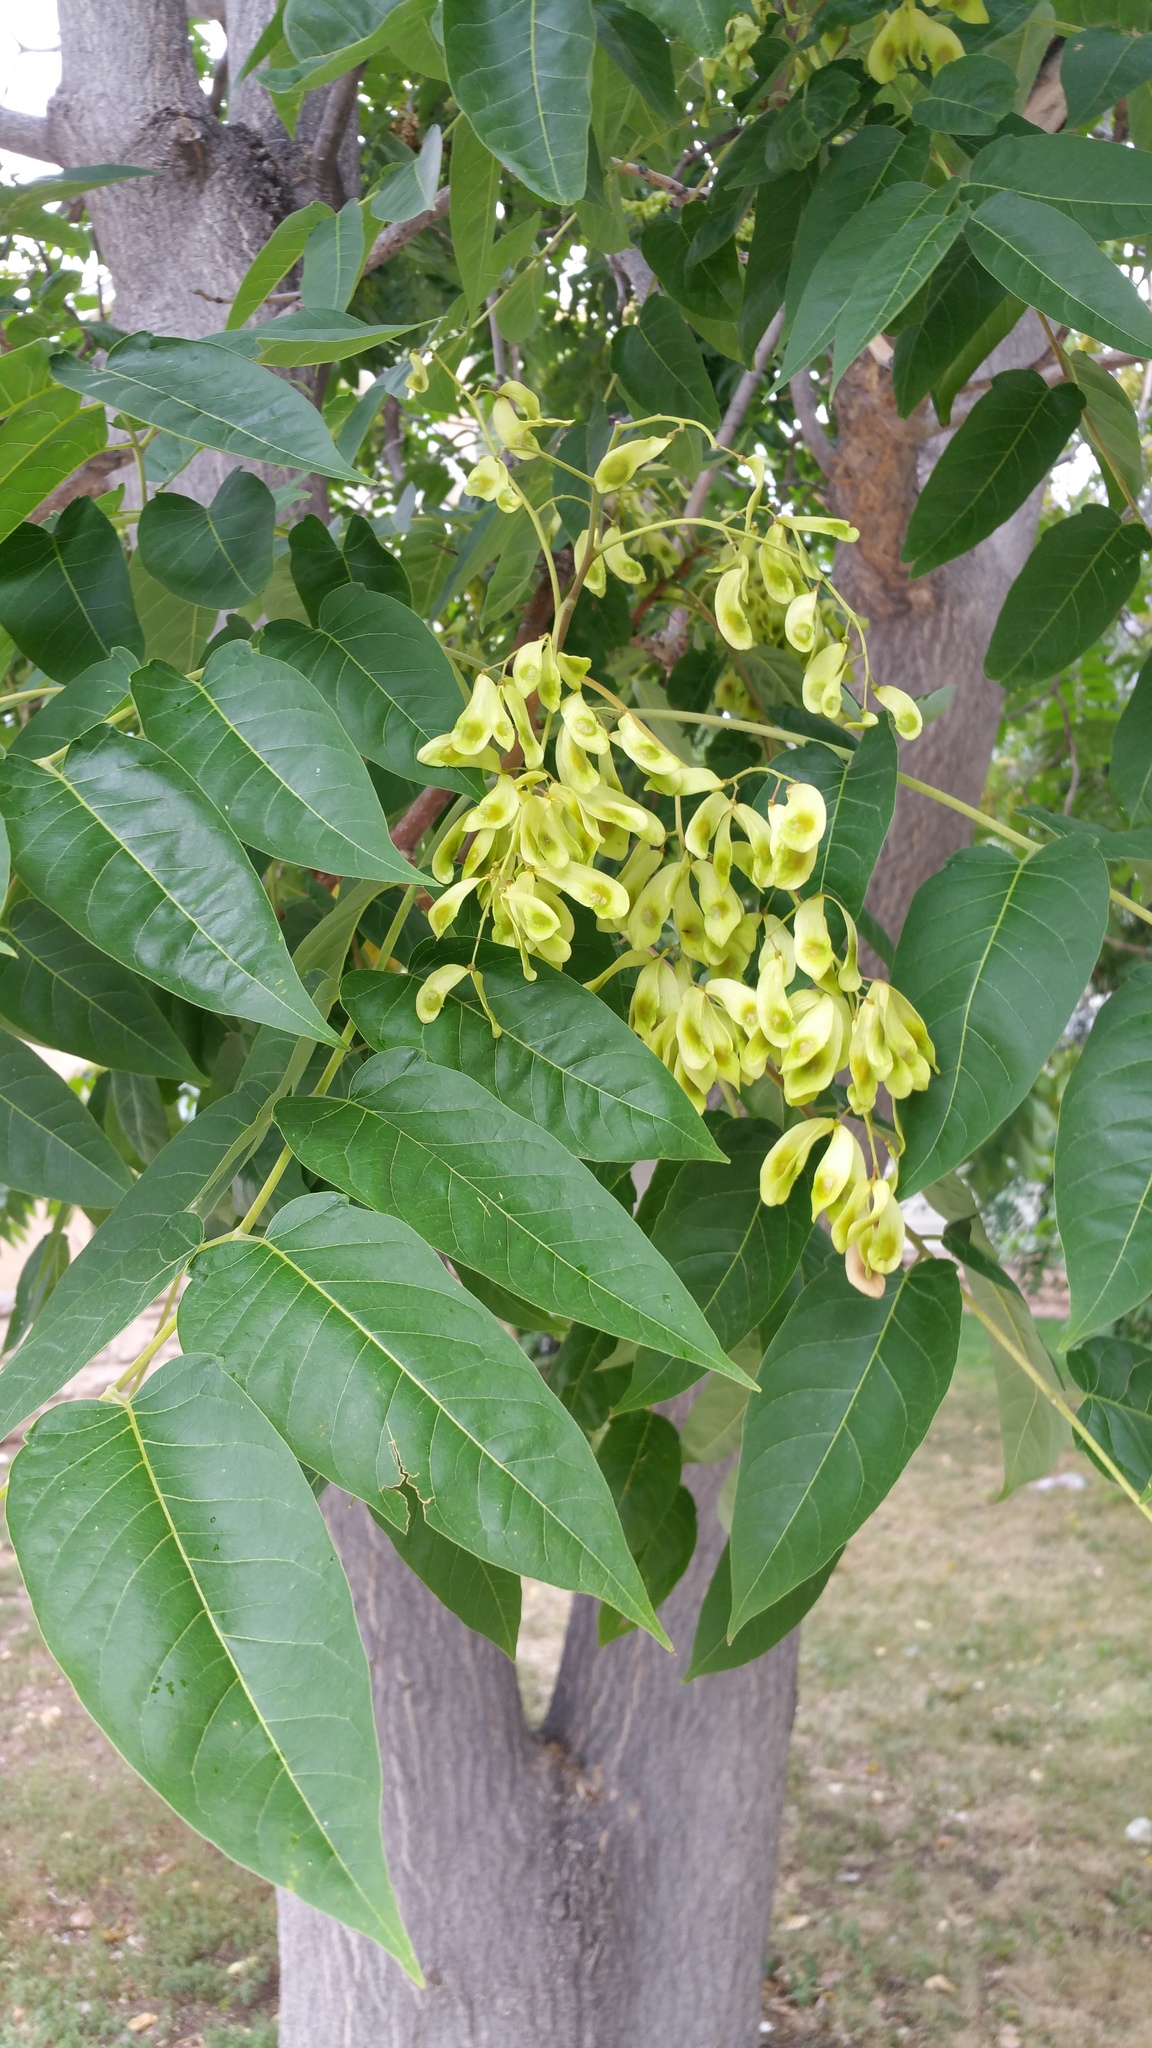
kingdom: Plantae
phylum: Tracheophyta
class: Magnoliopsida
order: Sapindales
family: Simaroubaceae
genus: Ailanthus
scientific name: Ailanthus altissima
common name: Tree-of-heaven
